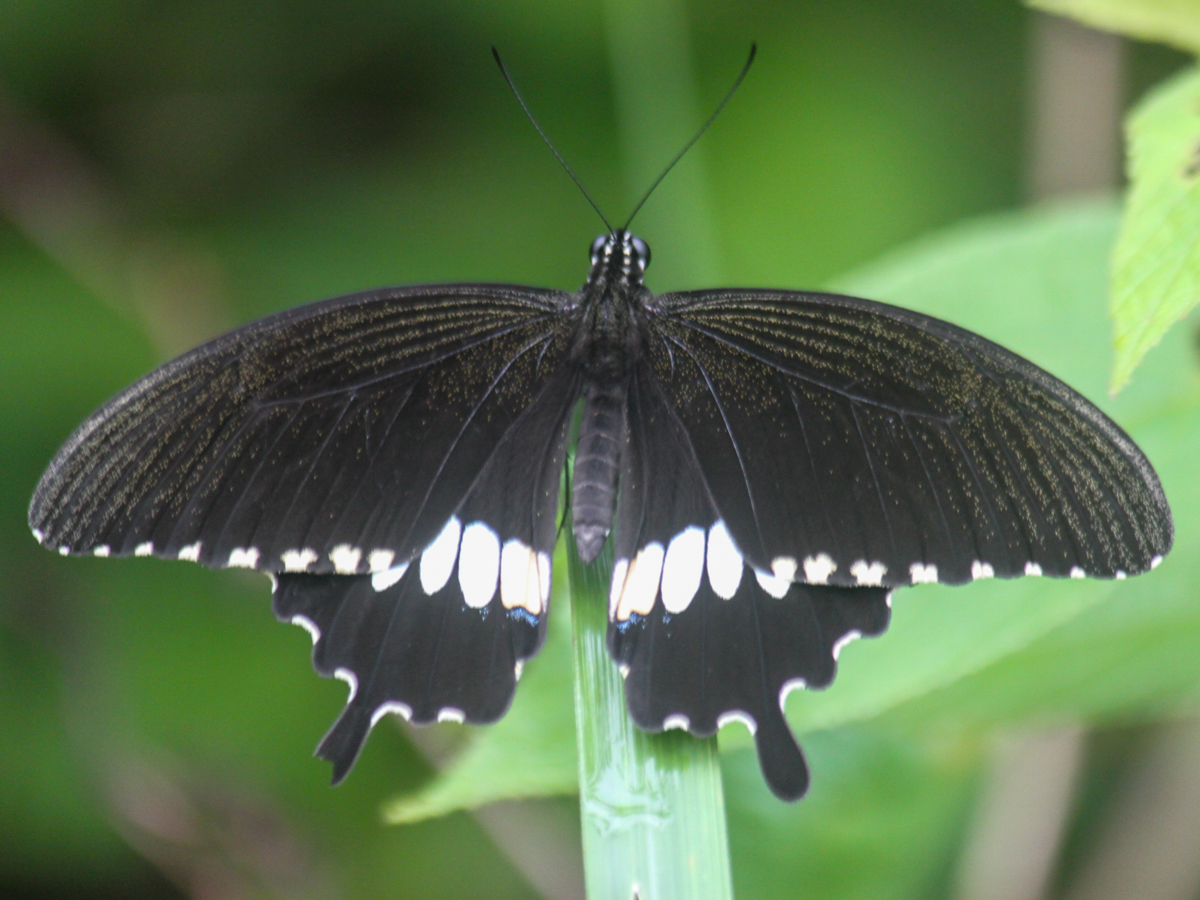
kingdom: Animalia
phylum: Arthropoda
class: Insecta
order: Lepidoptera
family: Papilionidae
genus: Papilio
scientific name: Papilio polytes
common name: Common mormon
